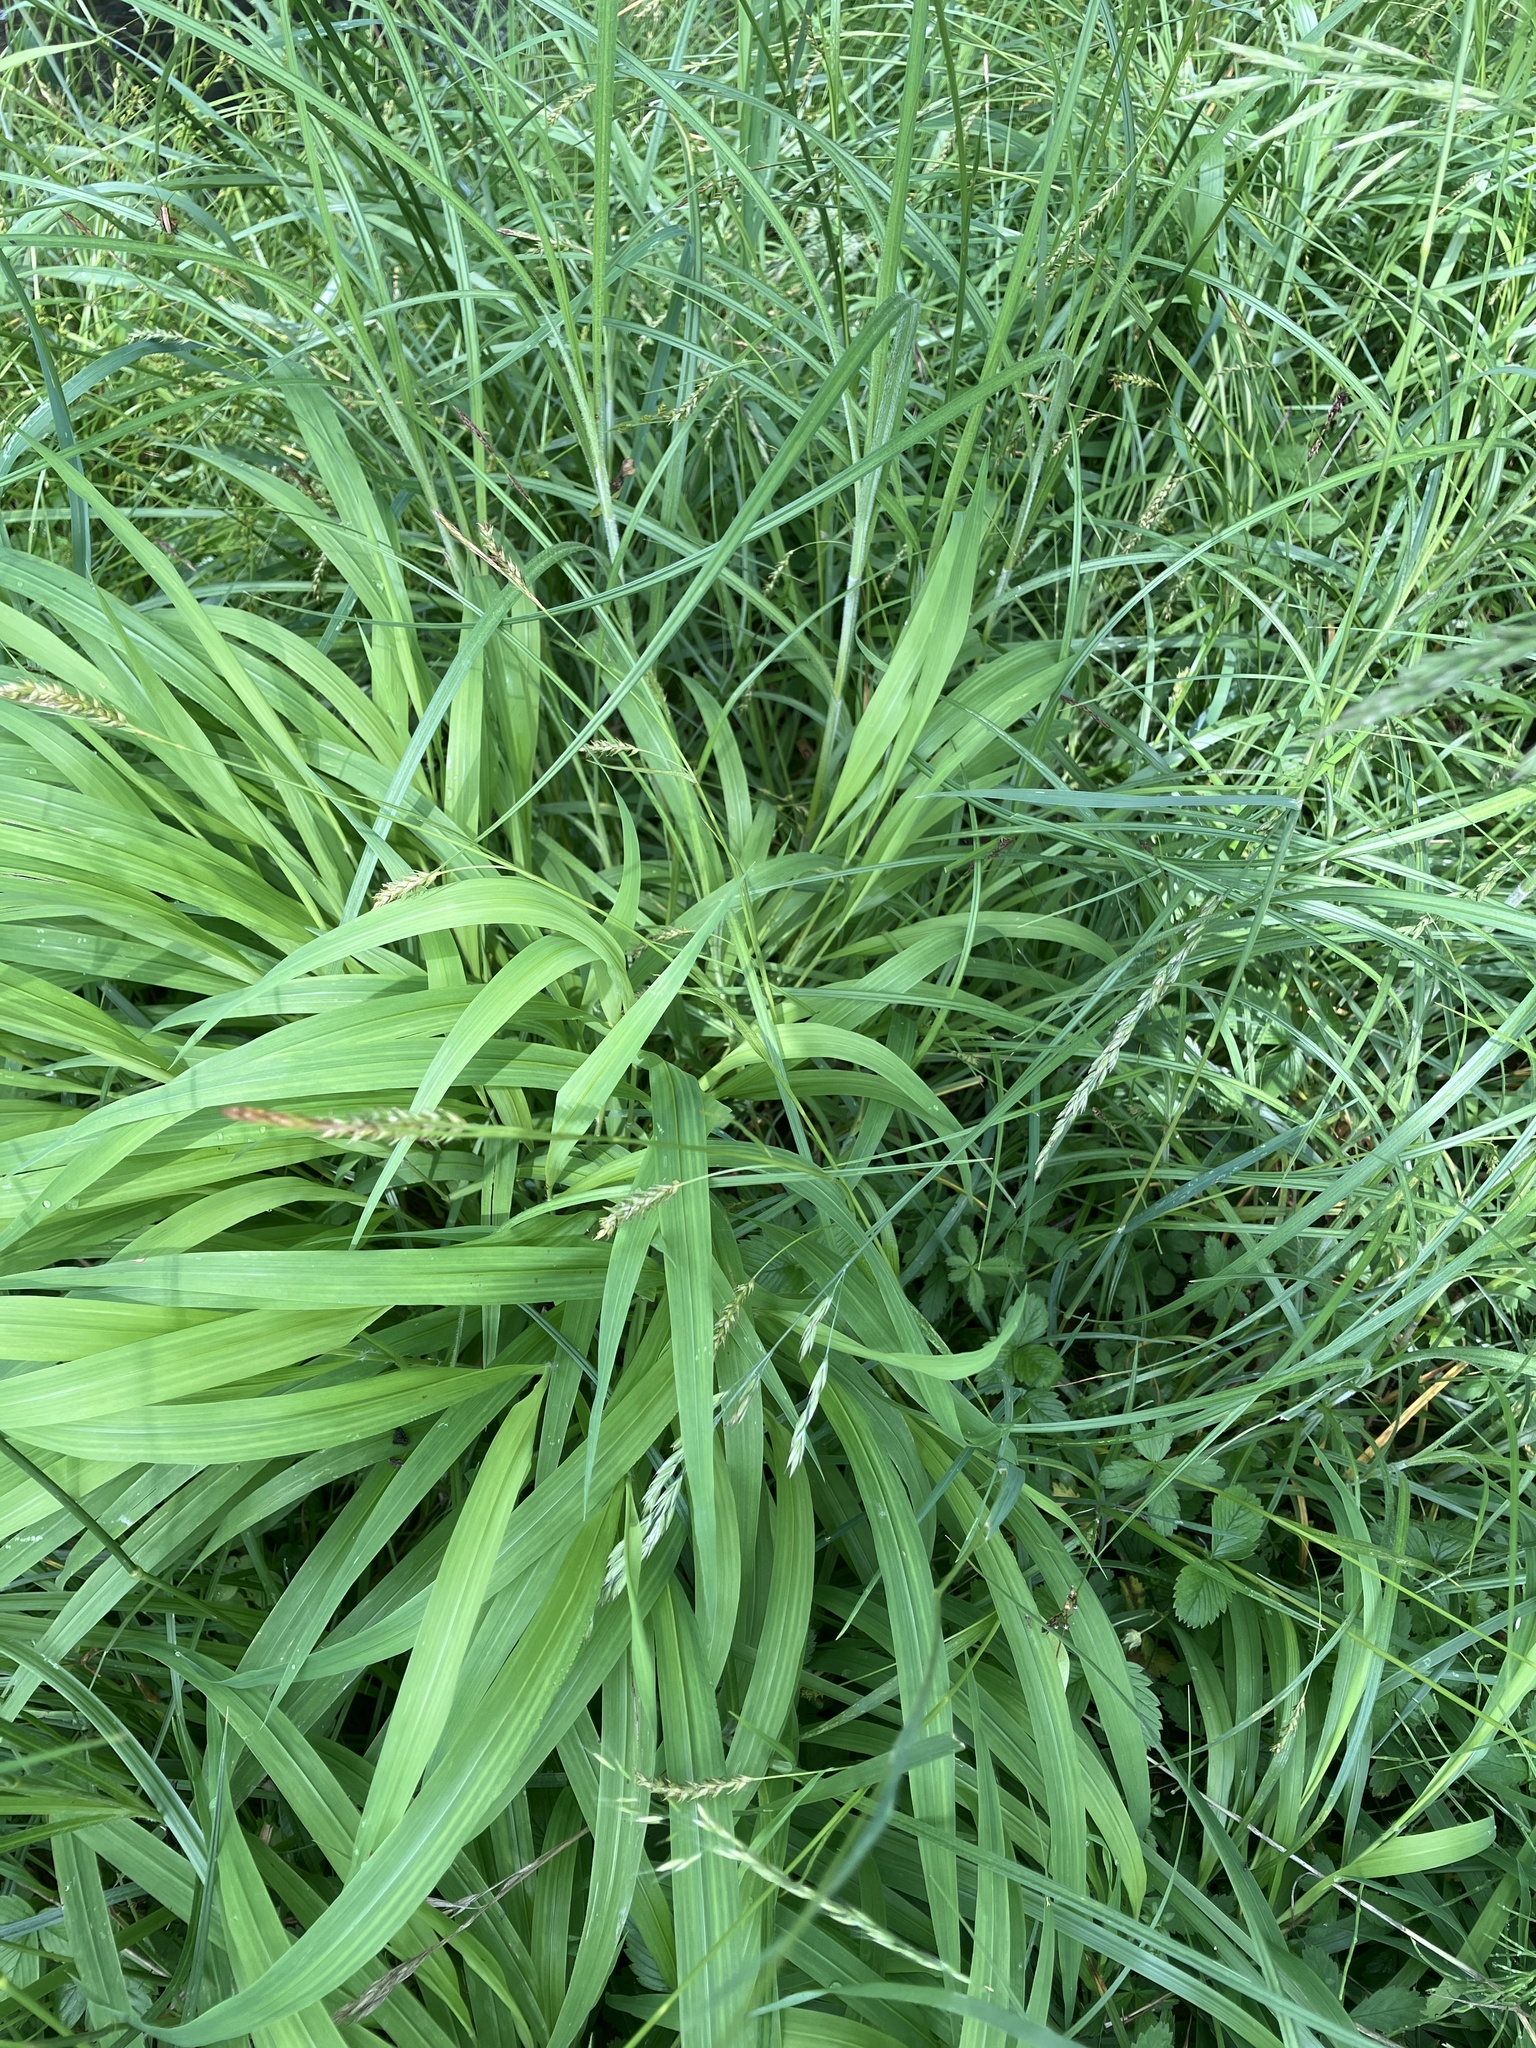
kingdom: Plantae
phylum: Tracheophyta
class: Liliopsida
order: Poales
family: Cyperaceae
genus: Carex
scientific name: Carex sylvatica
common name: Wood-sedge
